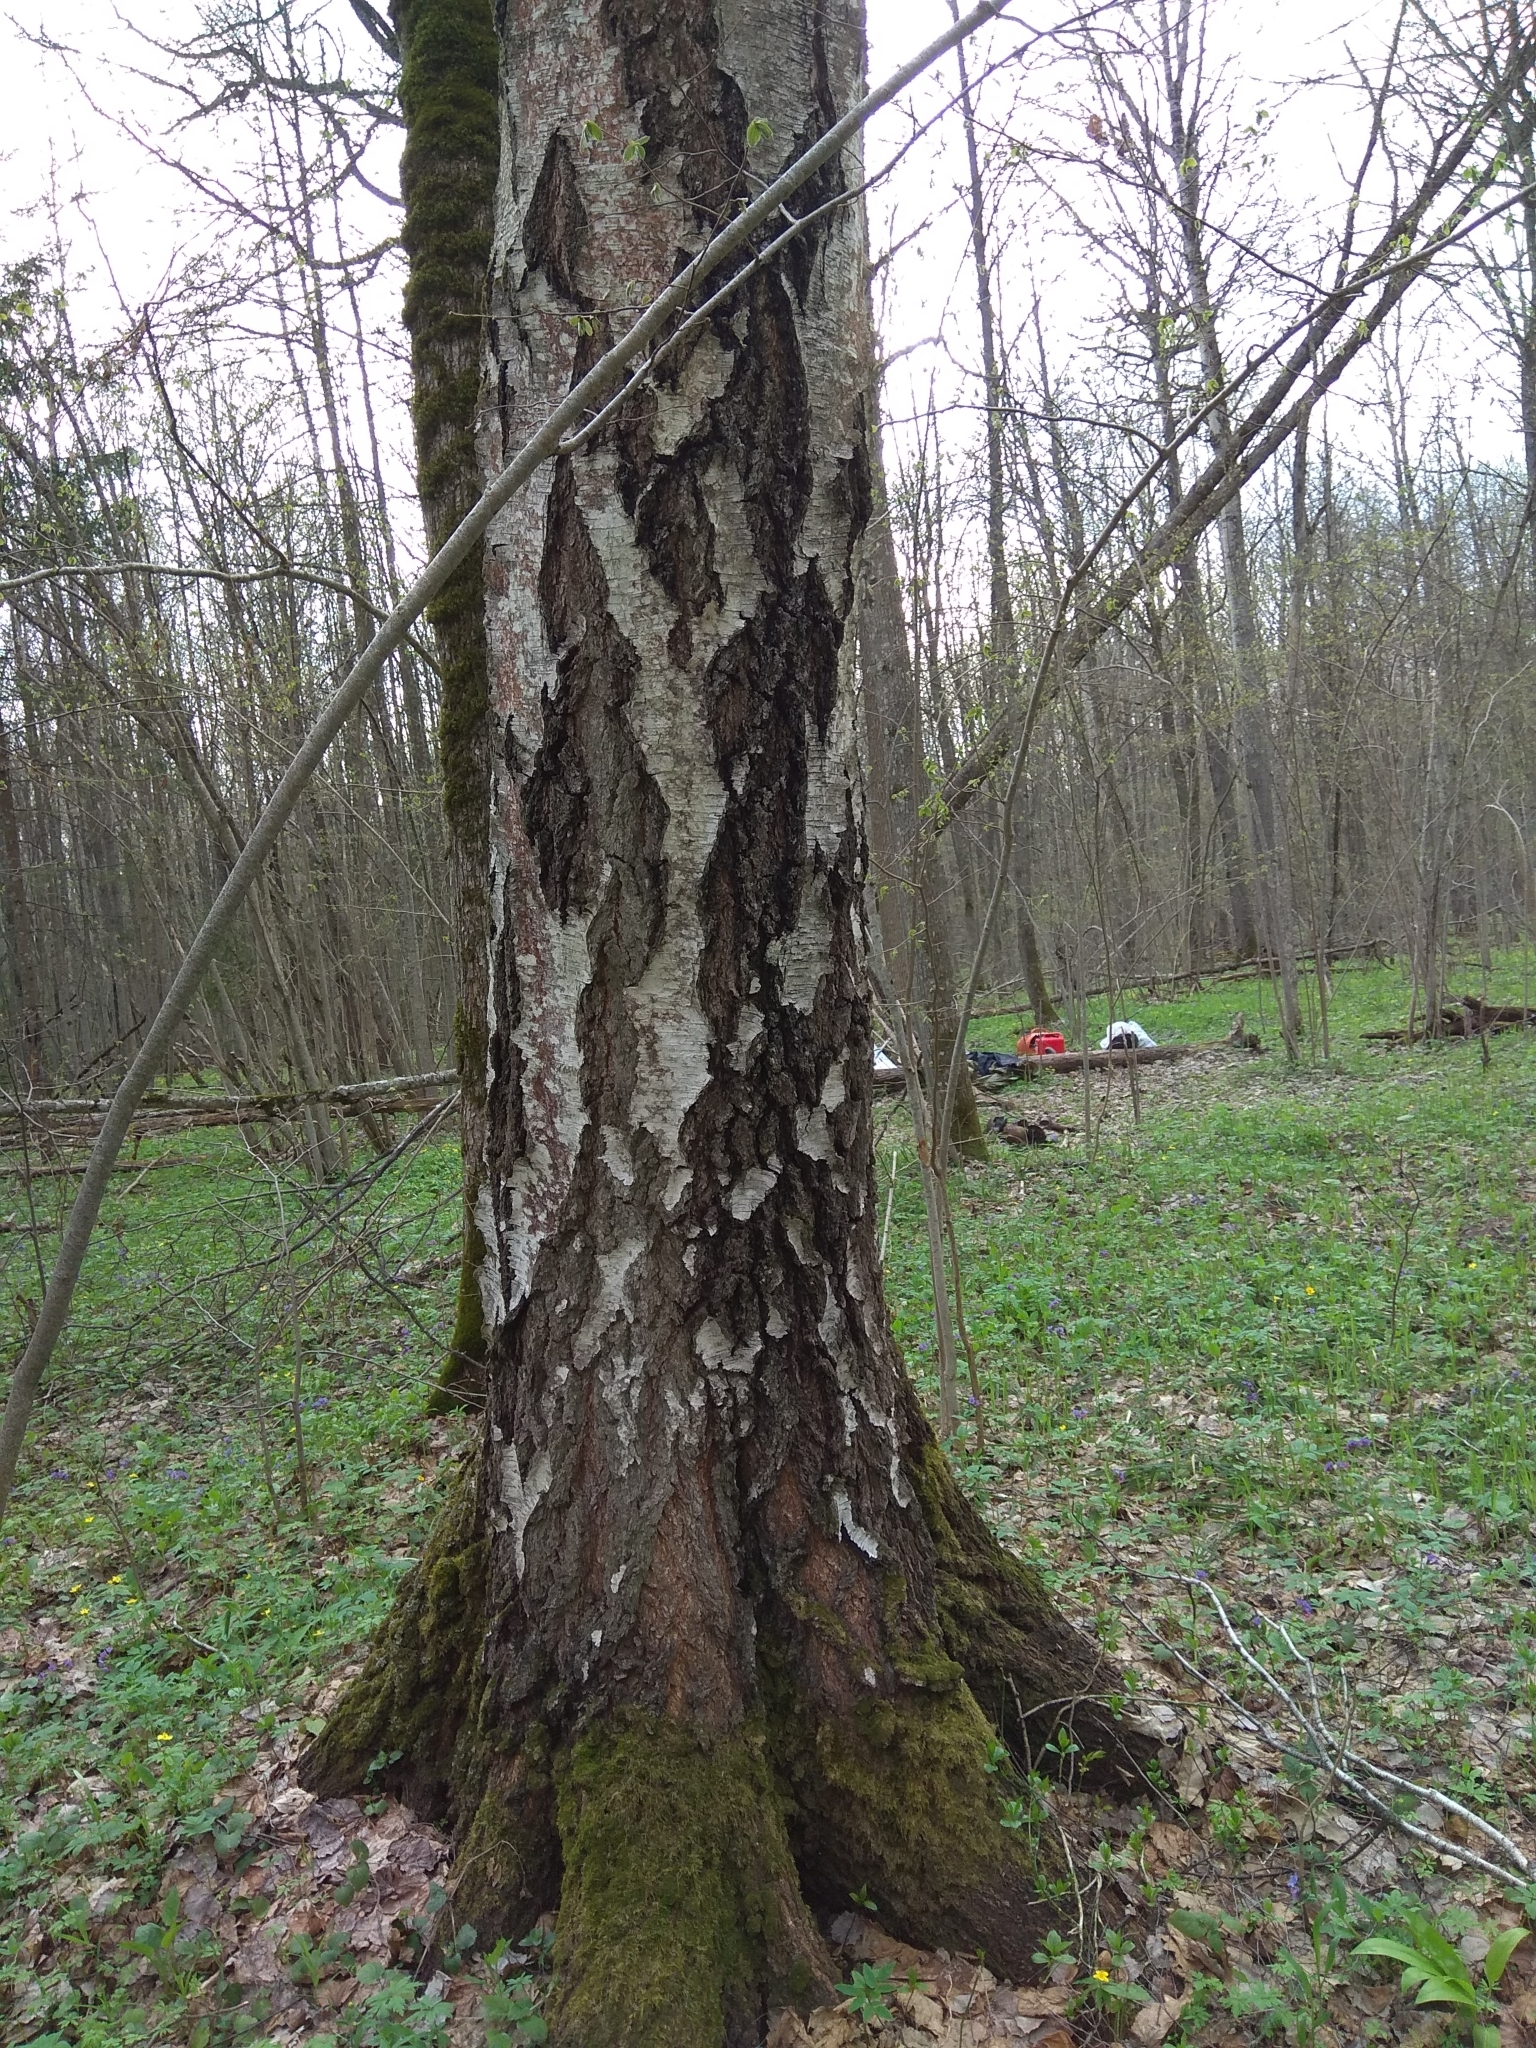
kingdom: Plantae
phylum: Tracheophyta
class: Magnoliopsida
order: Fagales
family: Betulaceae
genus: Betula
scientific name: Betula pendula
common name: Silver birch
